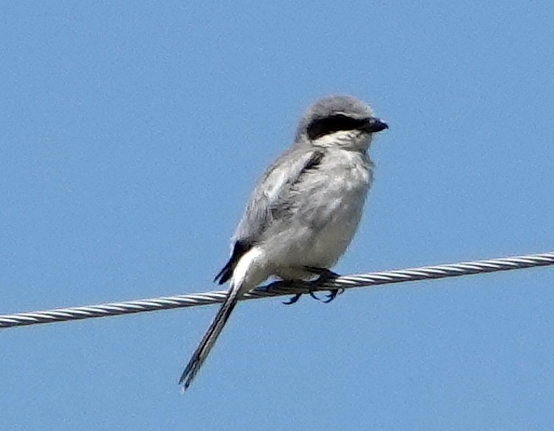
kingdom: Animalia
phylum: Chordata
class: Aves
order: Passeriformes
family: Laniidae
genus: Lanius
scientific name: Lanius ludovicianus
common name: Loggerhead shrike
